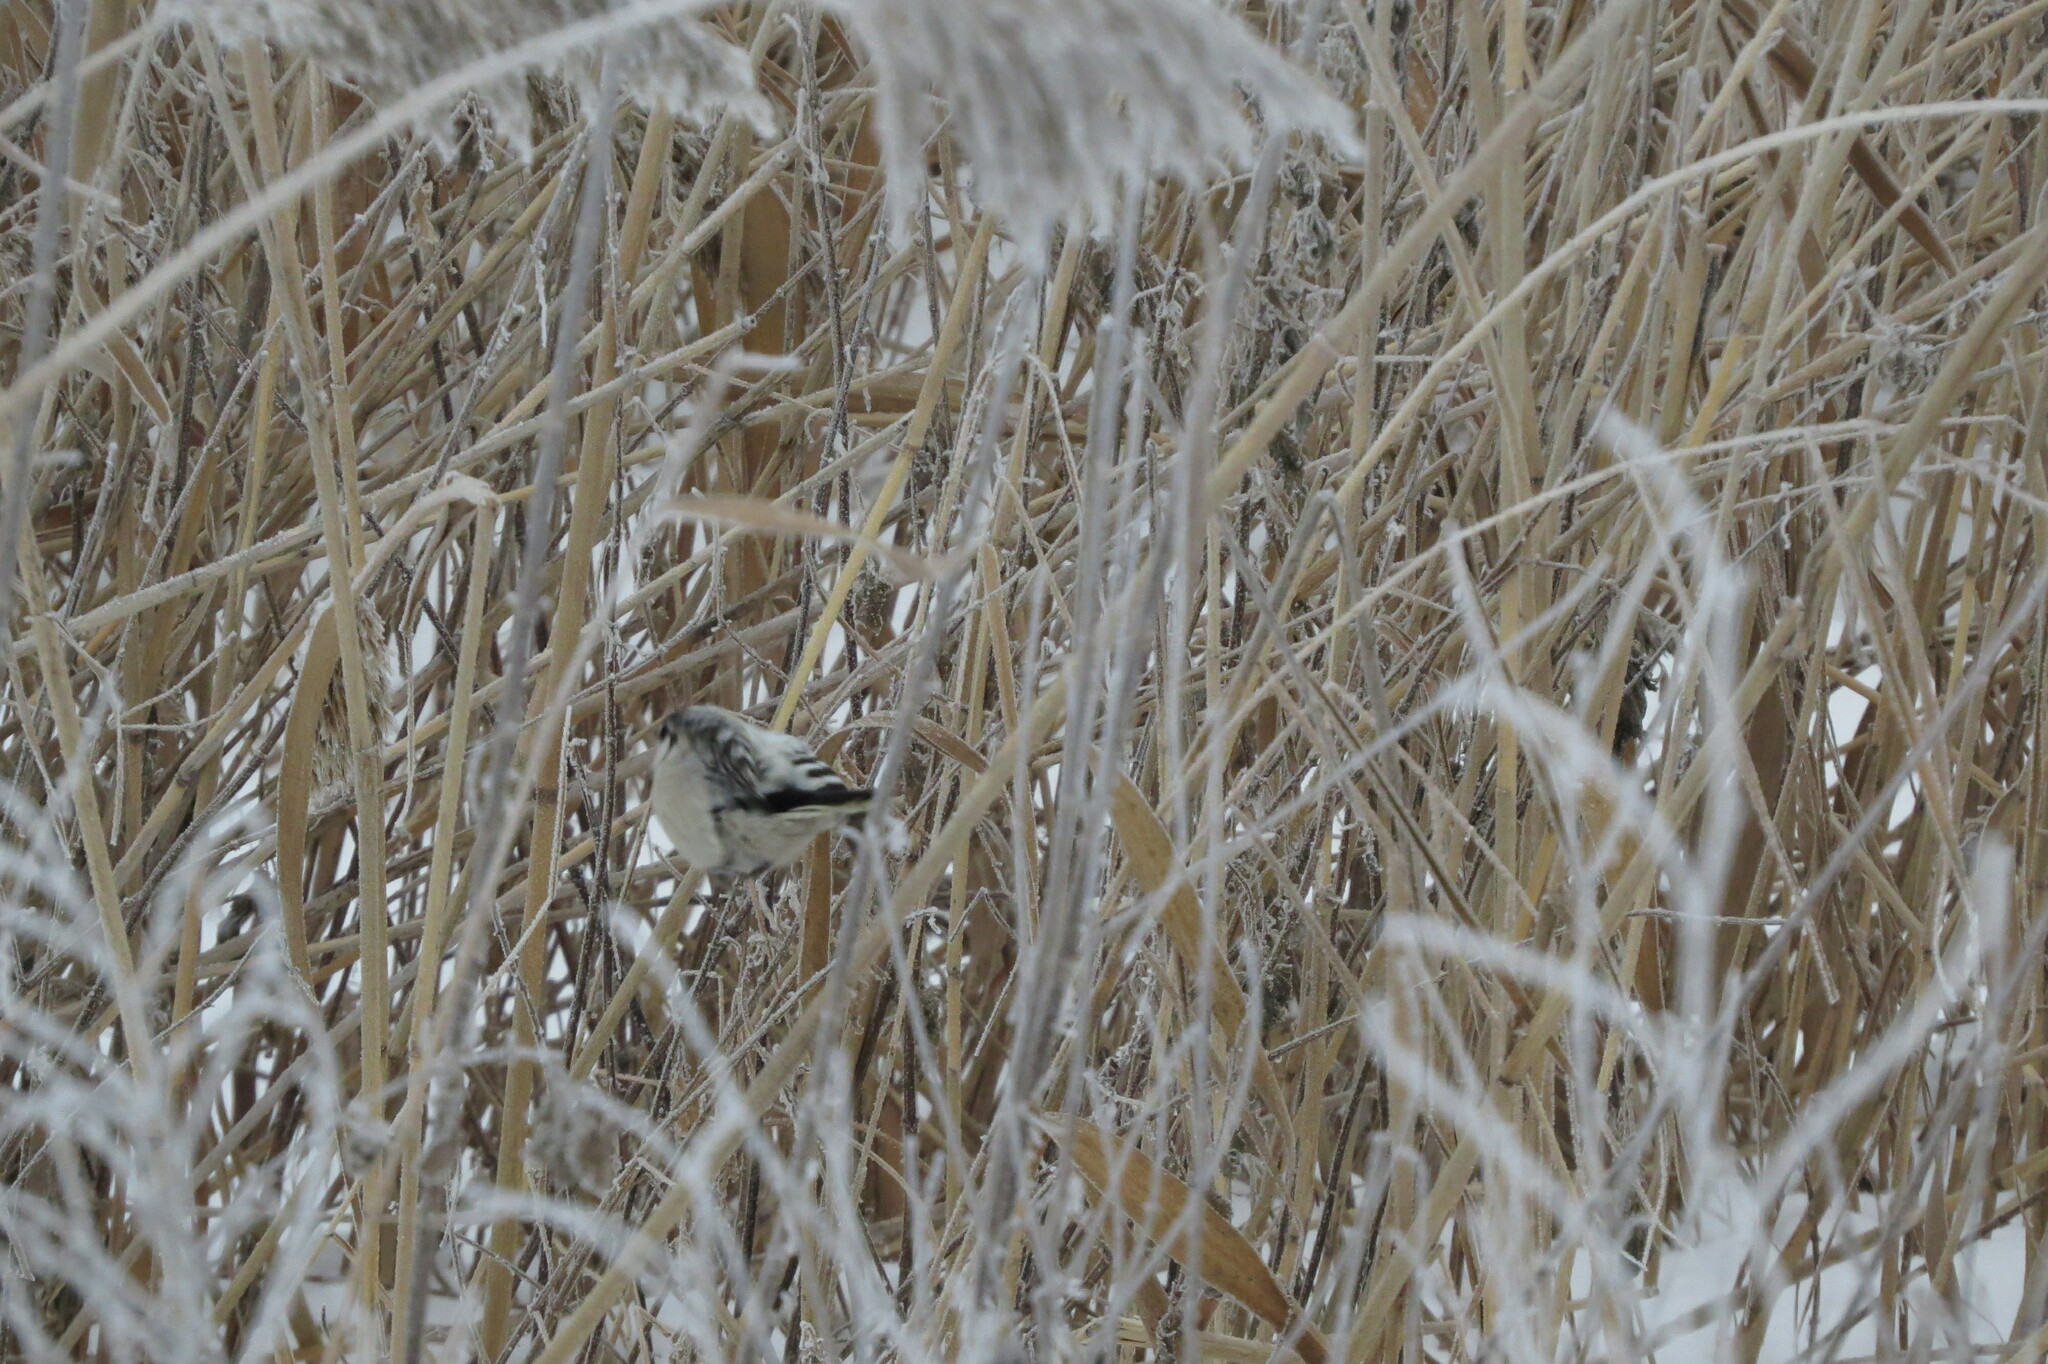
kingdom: Animalia
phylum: Chordata
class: Aves
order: Piciformes
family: Picidae
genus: Dryobates
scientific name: Dryobates minor
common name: Lesser spotted woodpecker
